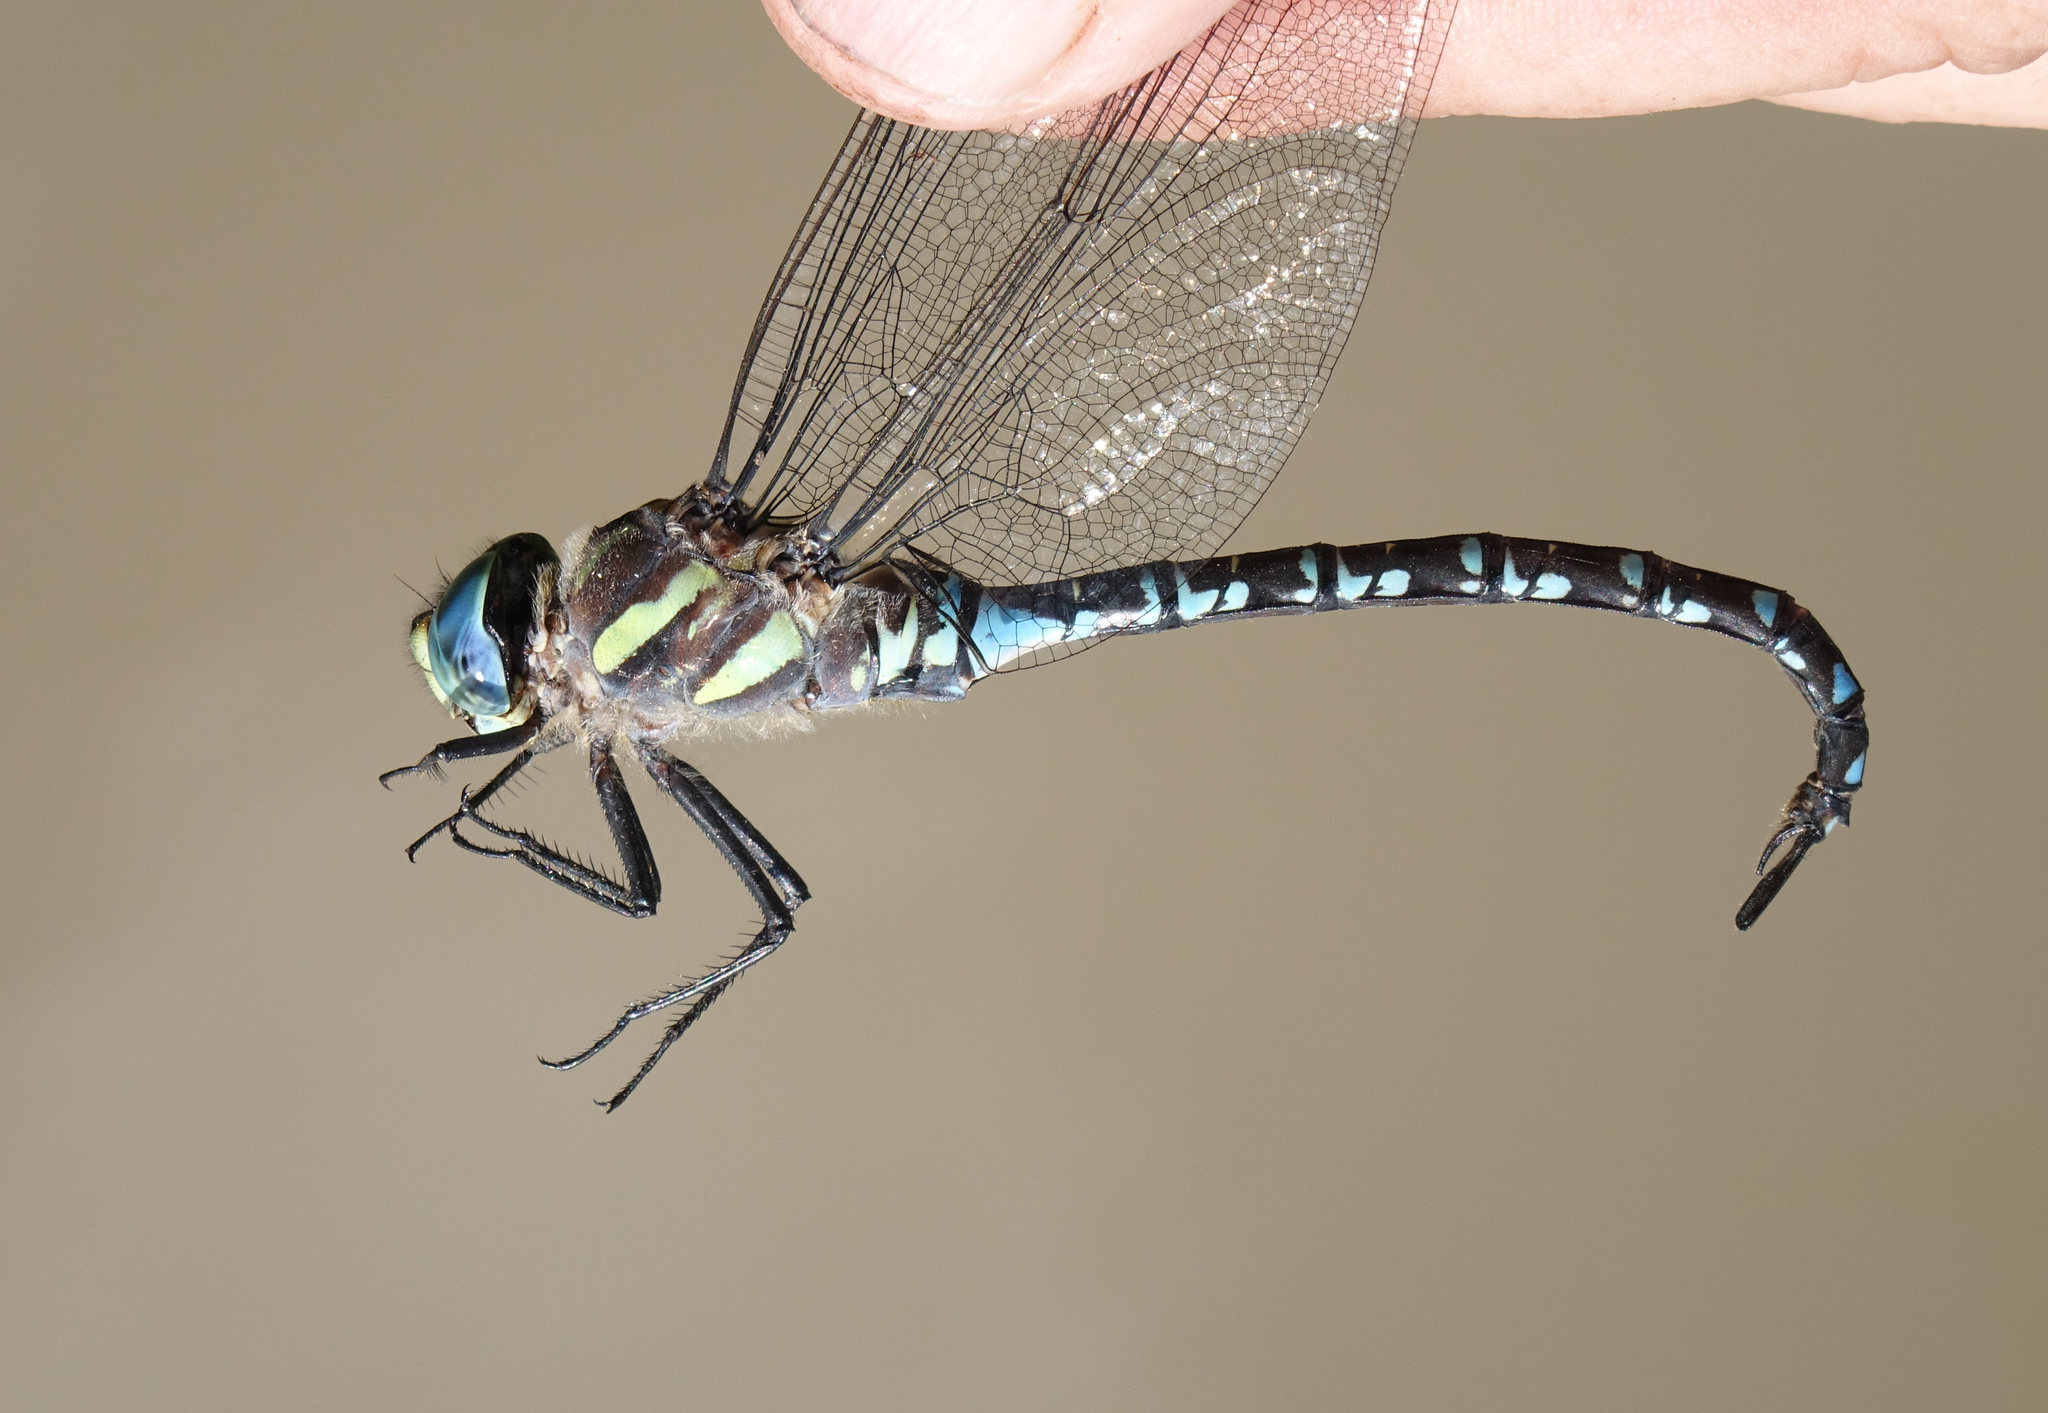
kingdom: Animalia
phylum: Arthropoda
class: Insecta
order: Odonata
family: Aeshnidae
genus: Aeshna
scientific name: Aeshna crenata
